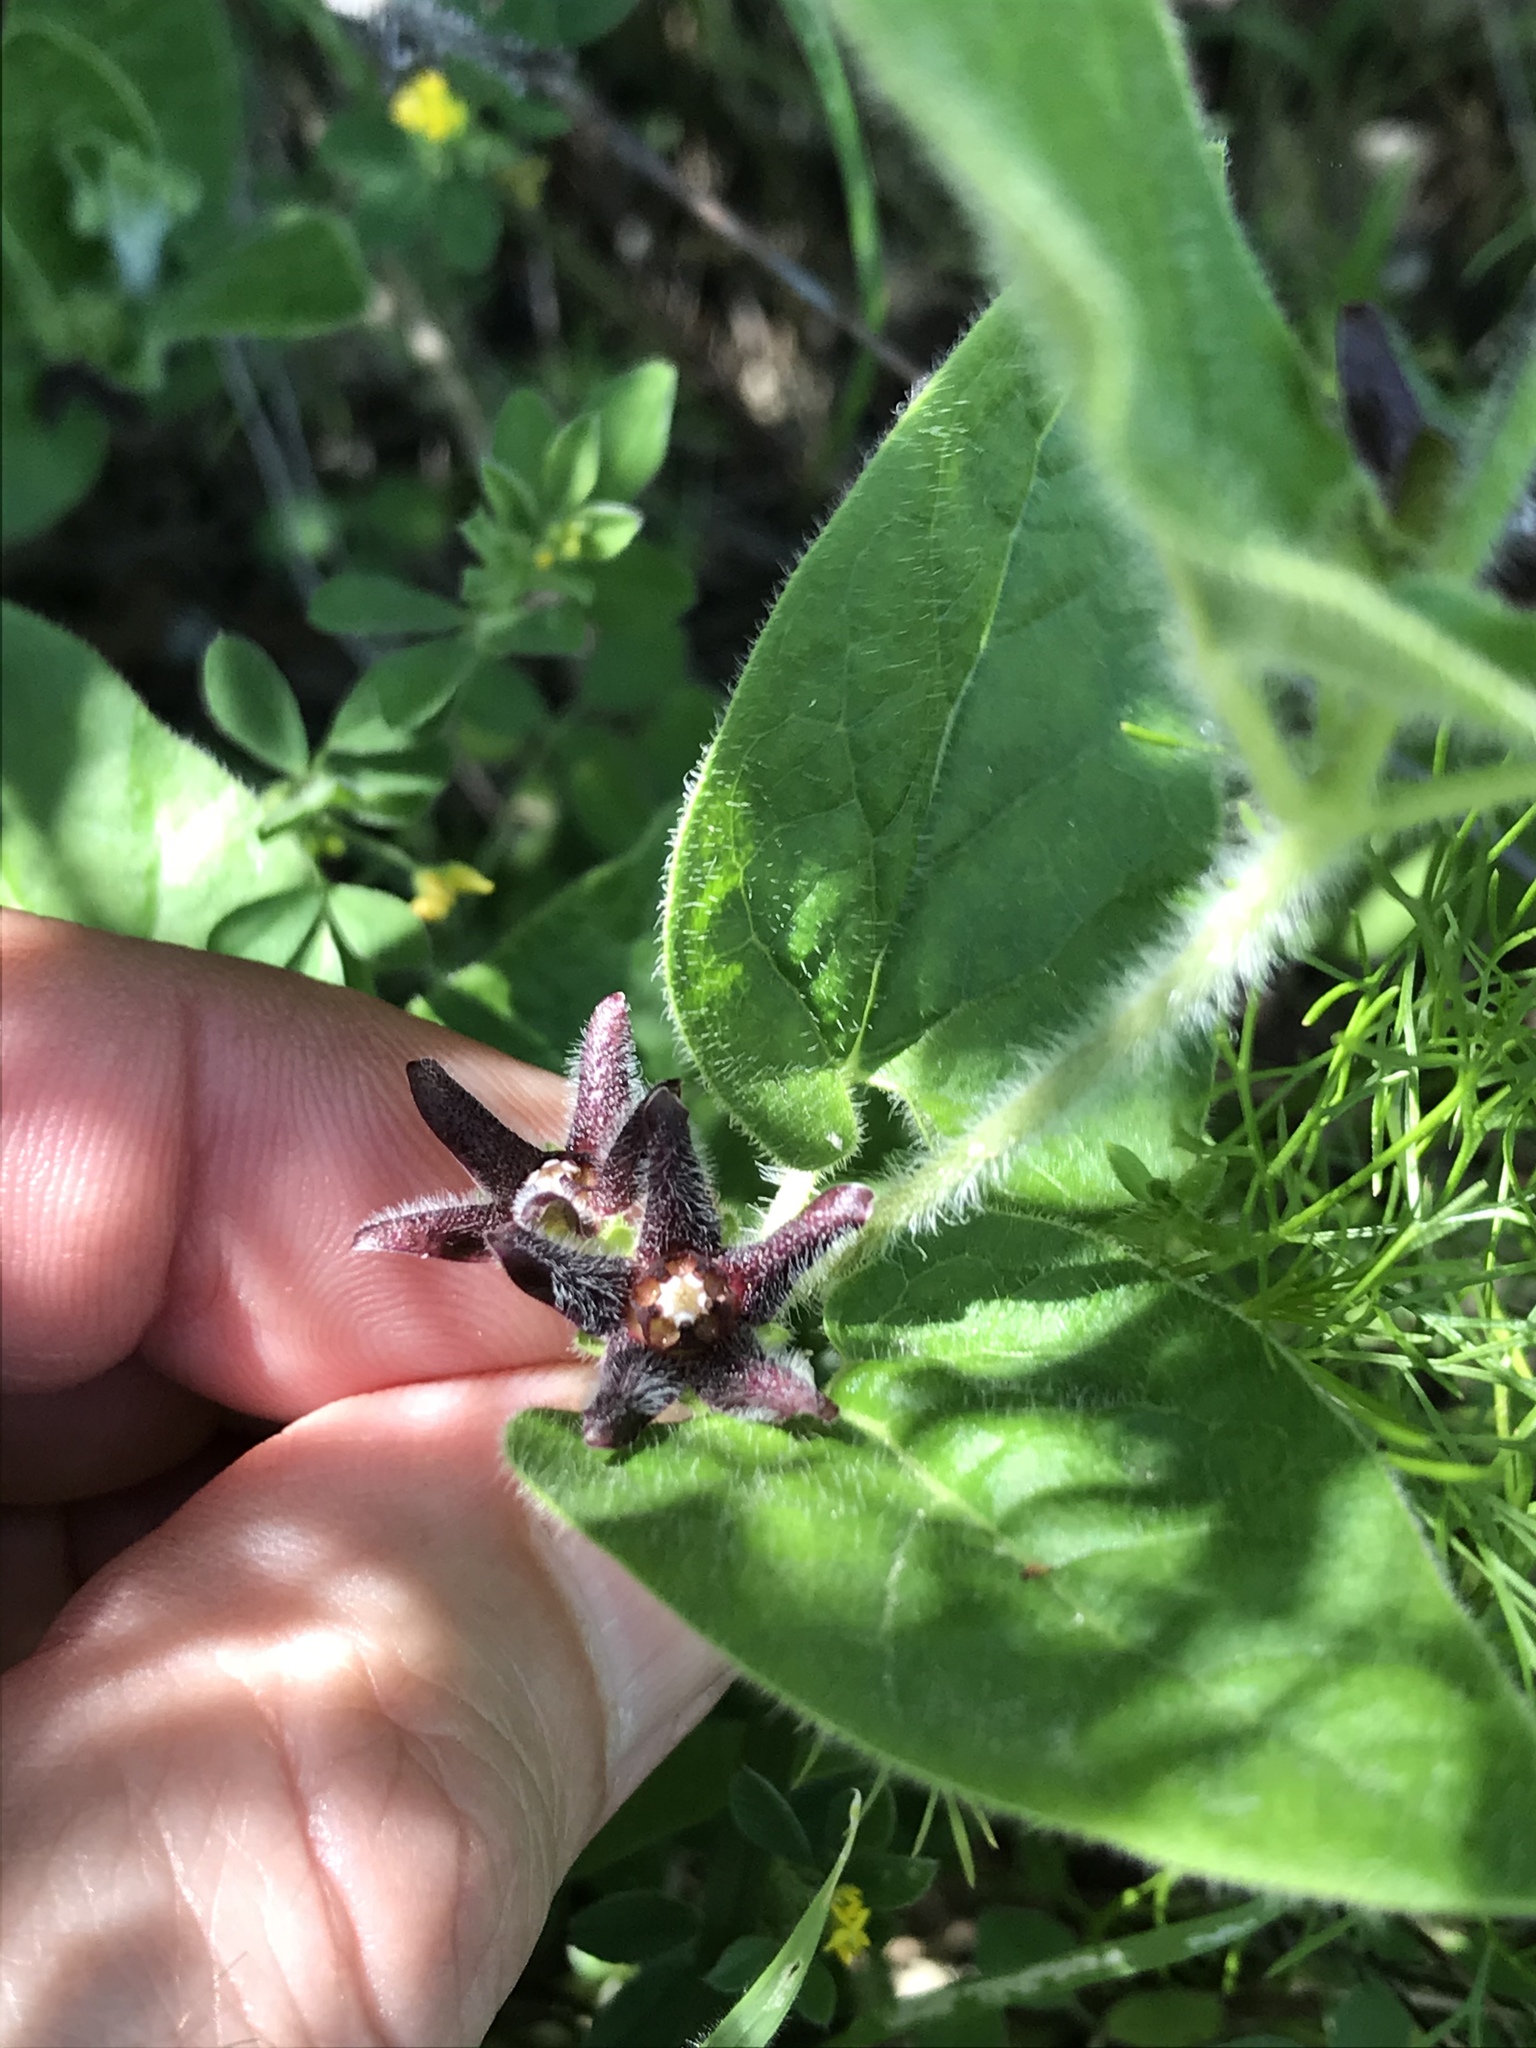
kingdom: Plantae
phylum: Tracheophyta
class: Magnoliopsida
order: Gentianales
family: Apocynaceae
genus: Chthamalia
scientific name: Chthamalia biflora
